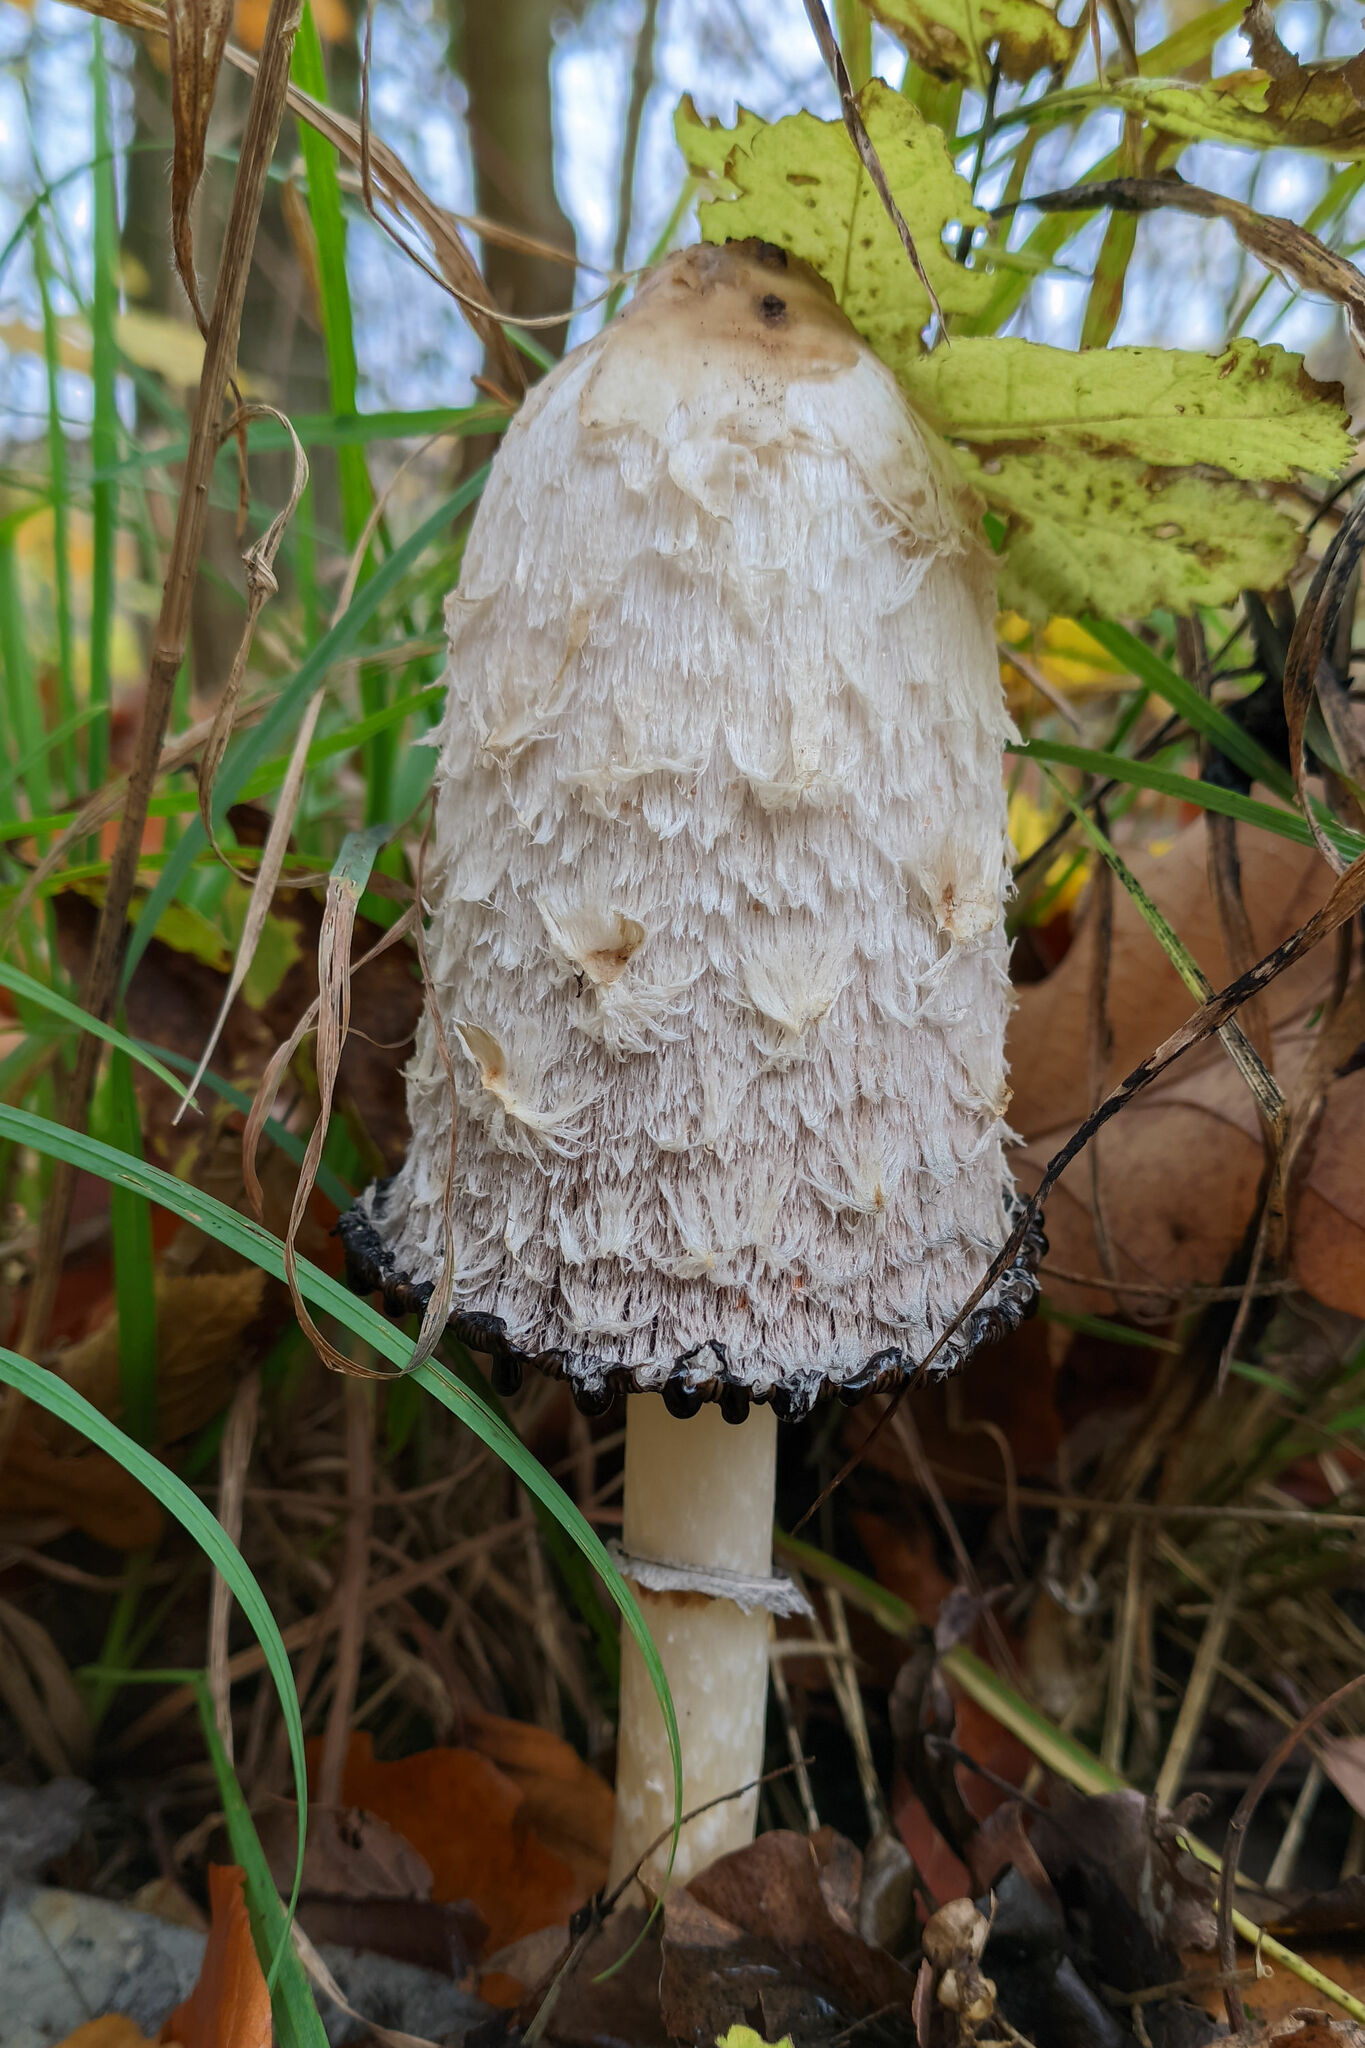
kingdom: Fungi
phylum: Basidiomycota
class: Agaricomycetes
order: Agaricales
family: Agaricaceae
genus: Coprinus
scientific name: Coprinus comatus
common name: Lawyer's wig
